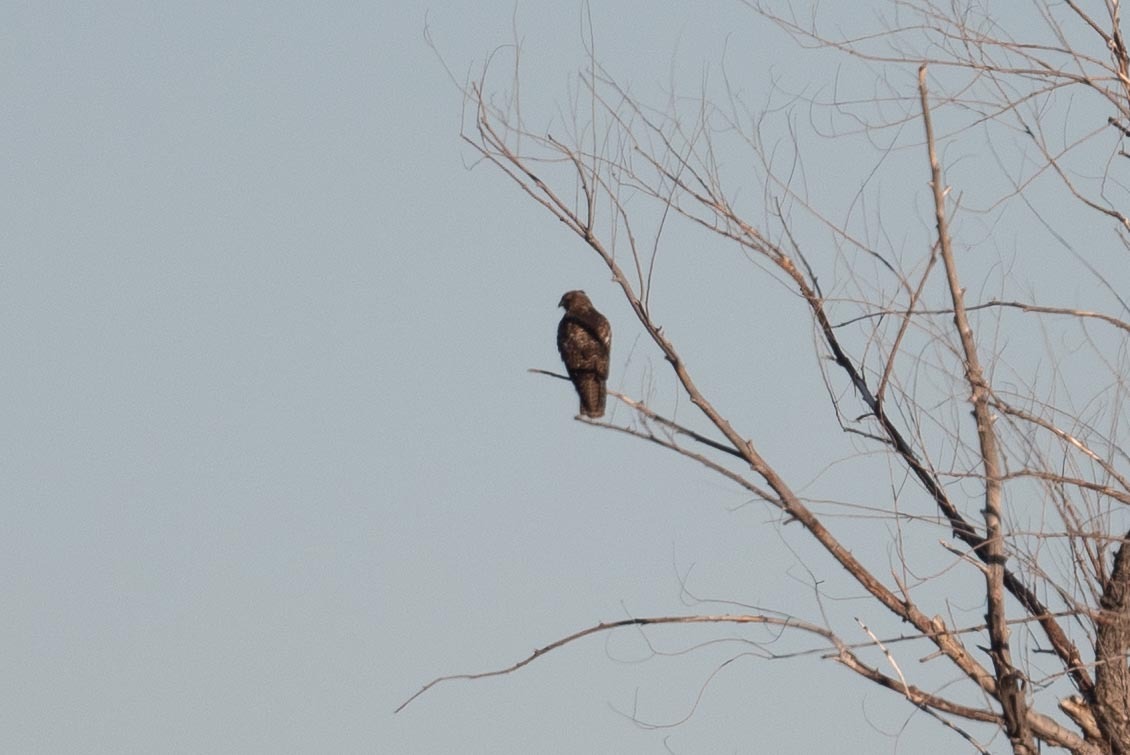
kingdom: Animalia
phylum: Chordata
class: Aves
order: Accipitriformes
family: Accipitridae
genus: Buteo
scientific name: Buteo jamaicensis
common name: Red-tailed hawk
